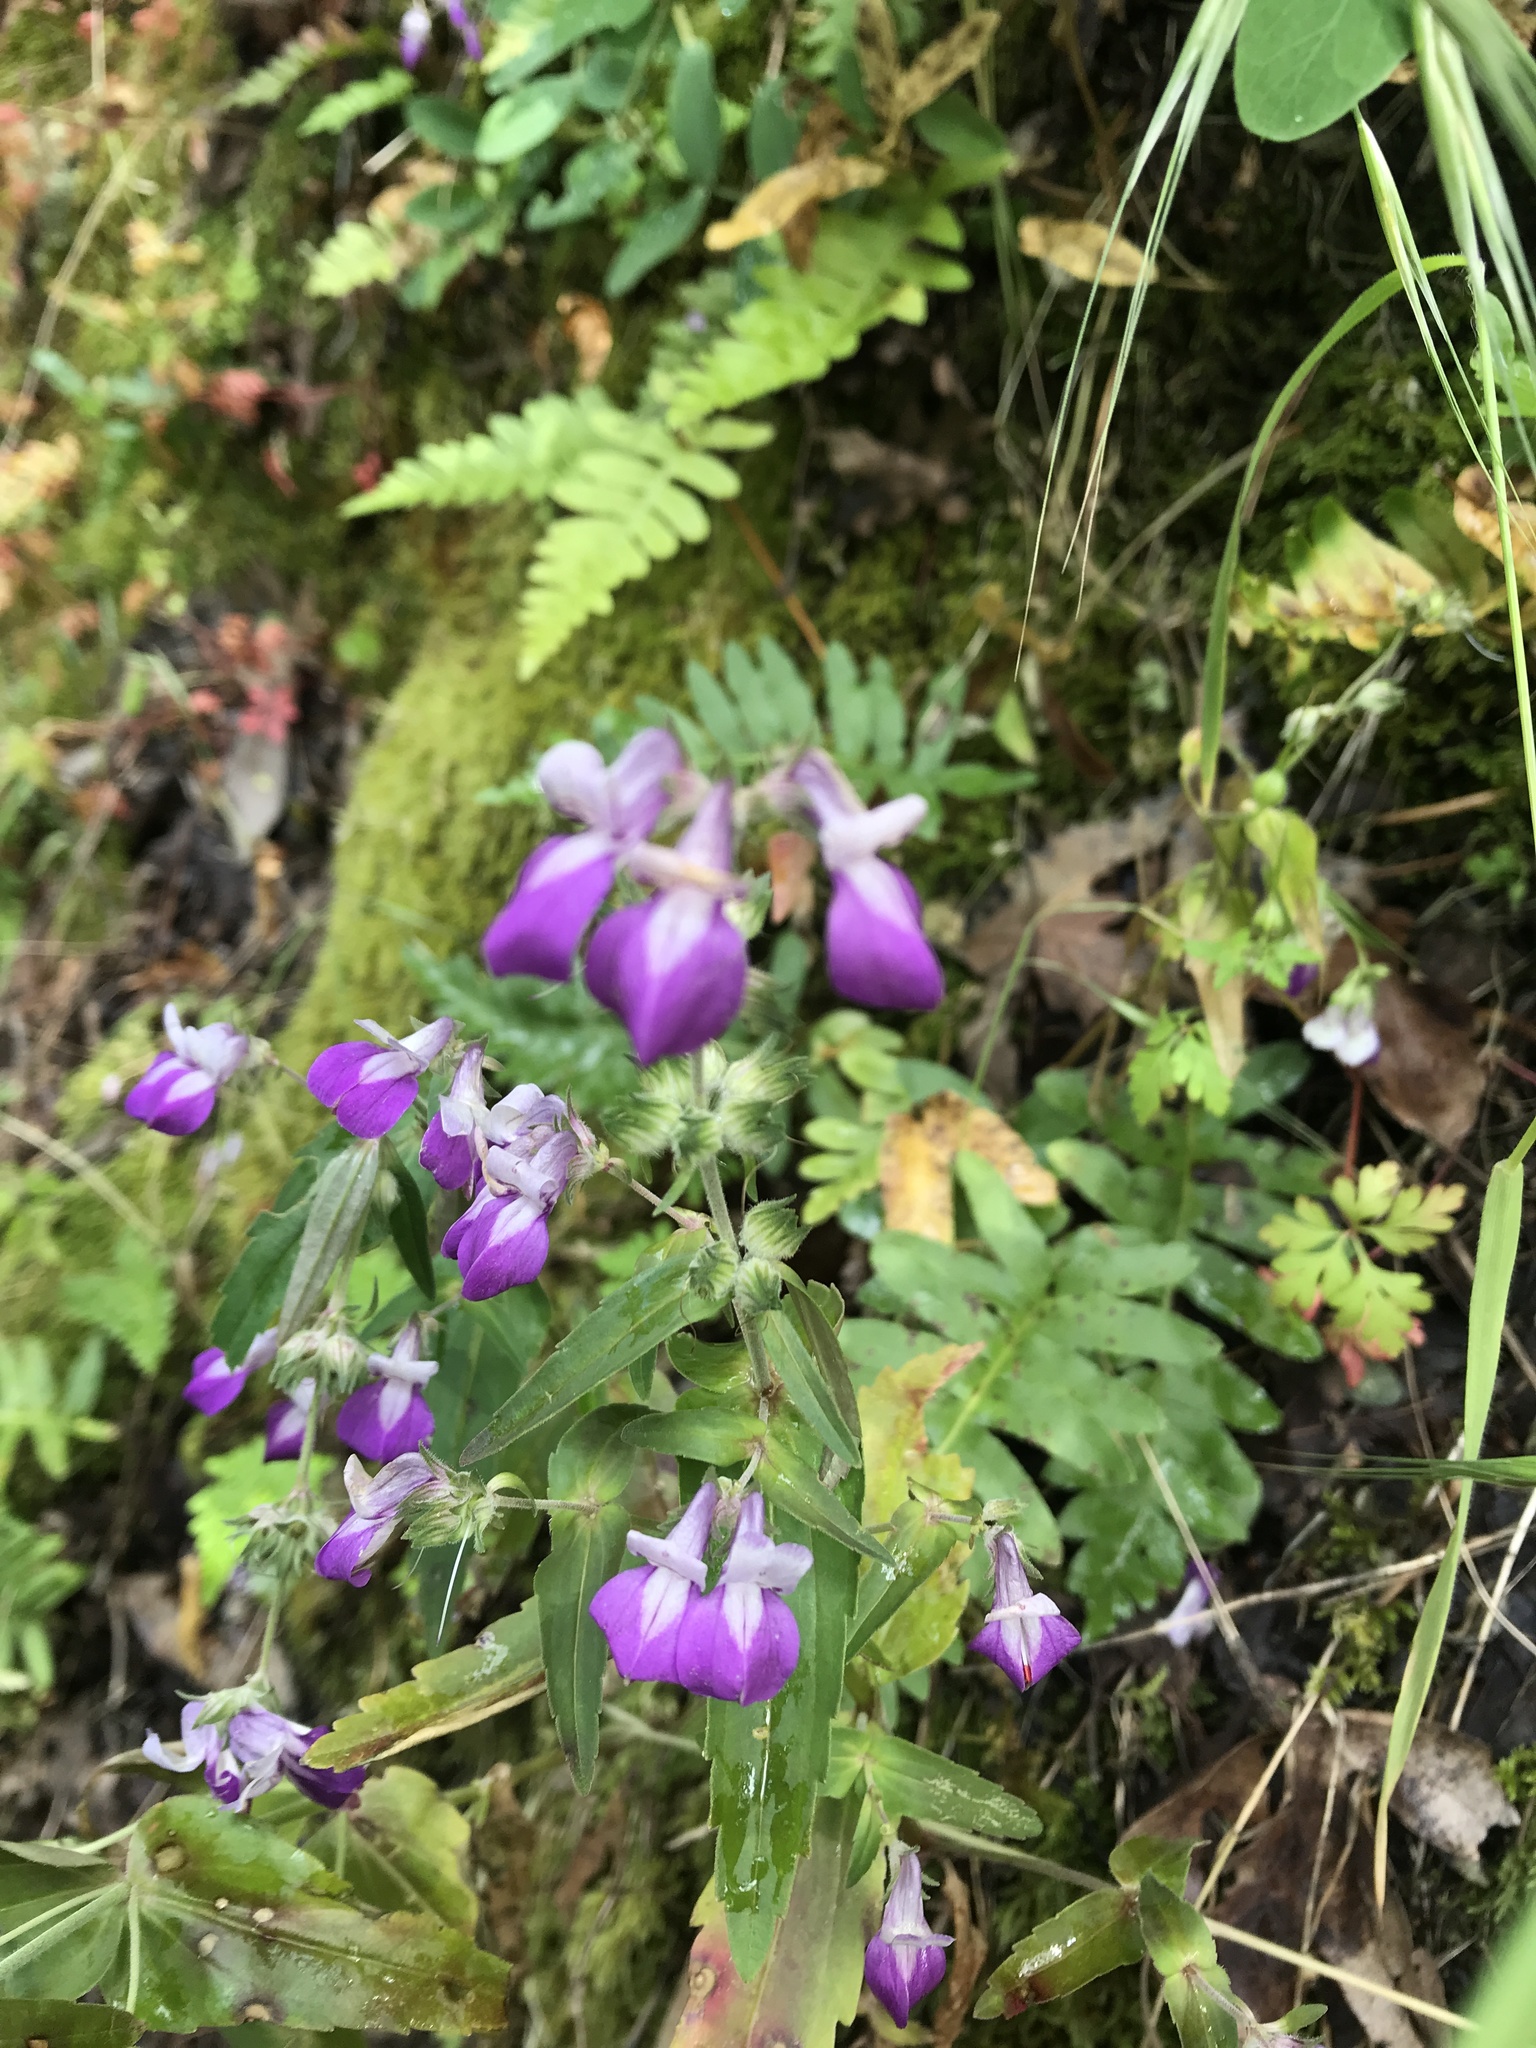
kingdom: Plantae
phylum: Tracheophyta
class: Magnoliopsida
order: Lamiales
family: Plantaginaceae
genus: Collinsia
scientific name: Collinsia heterophylla
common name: Chinese-houses
